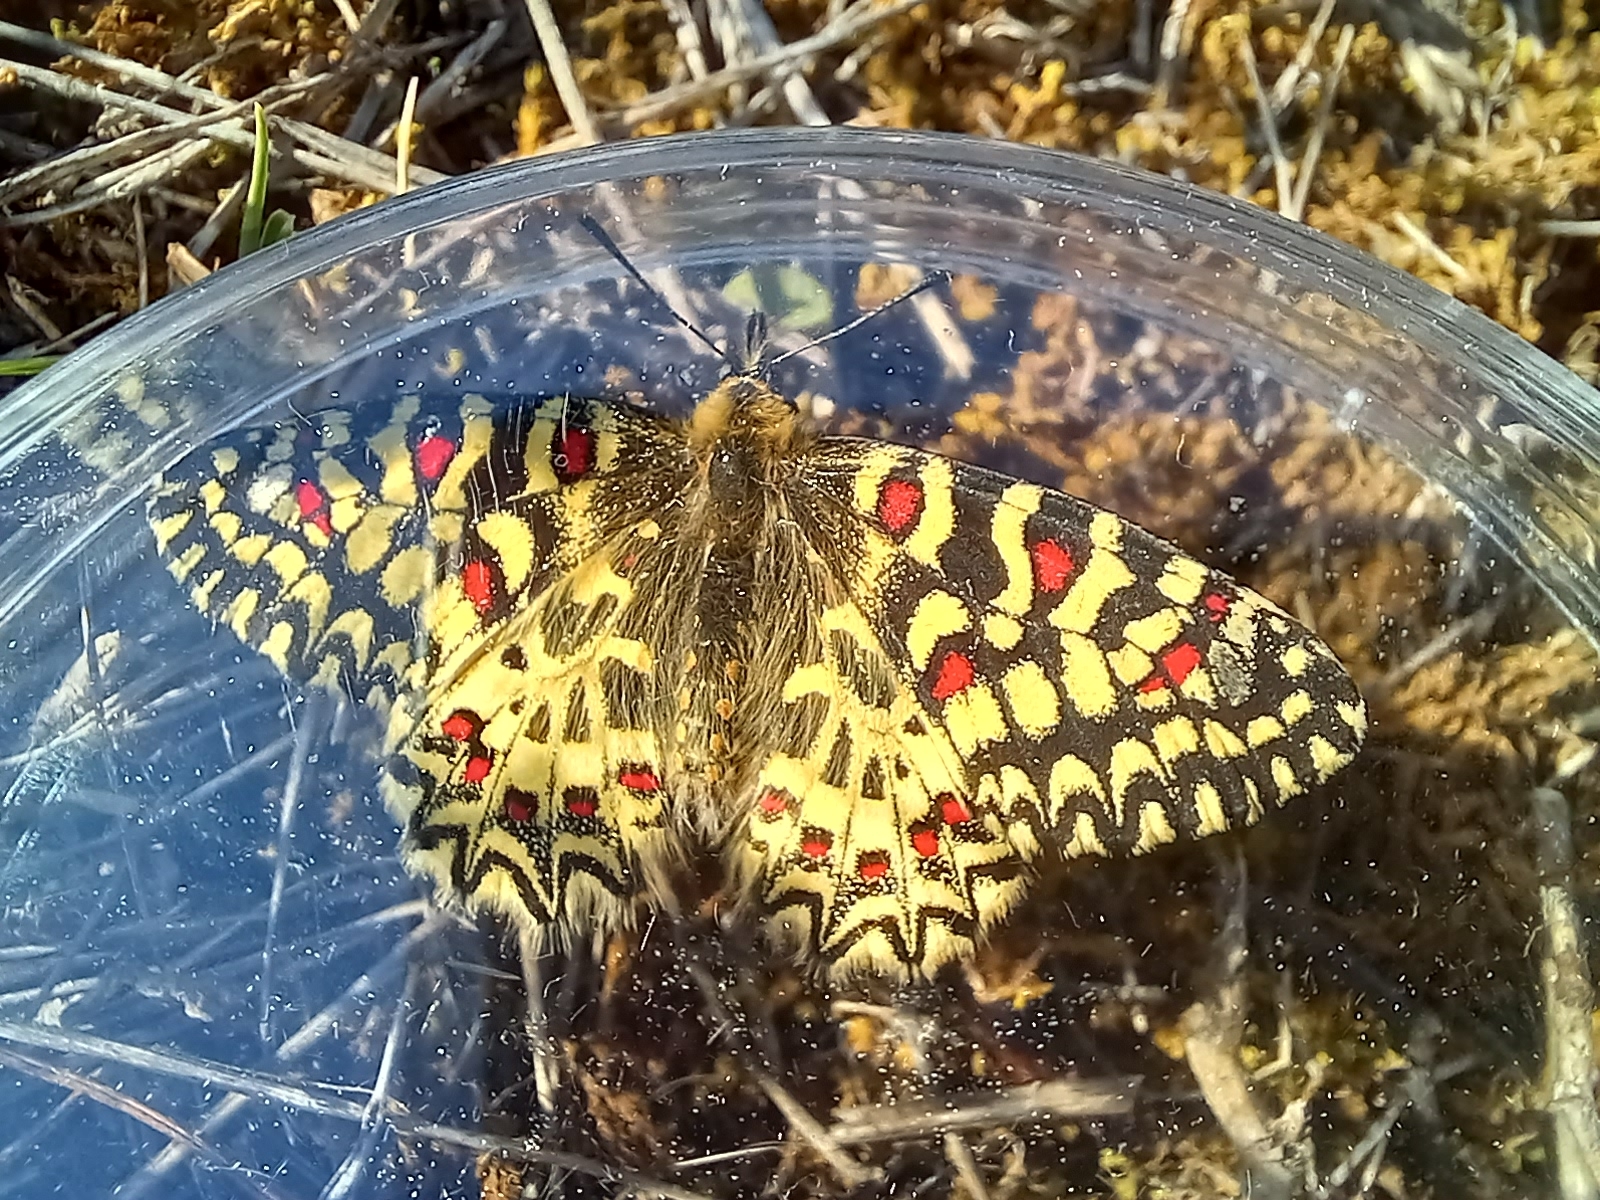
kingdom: Animalia
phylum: Arthropoda
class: Insecta
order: Lepidoptera
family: Papilionidae
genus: Zerynthia
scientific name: Zerynthia rumina
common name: Spanish festoon
